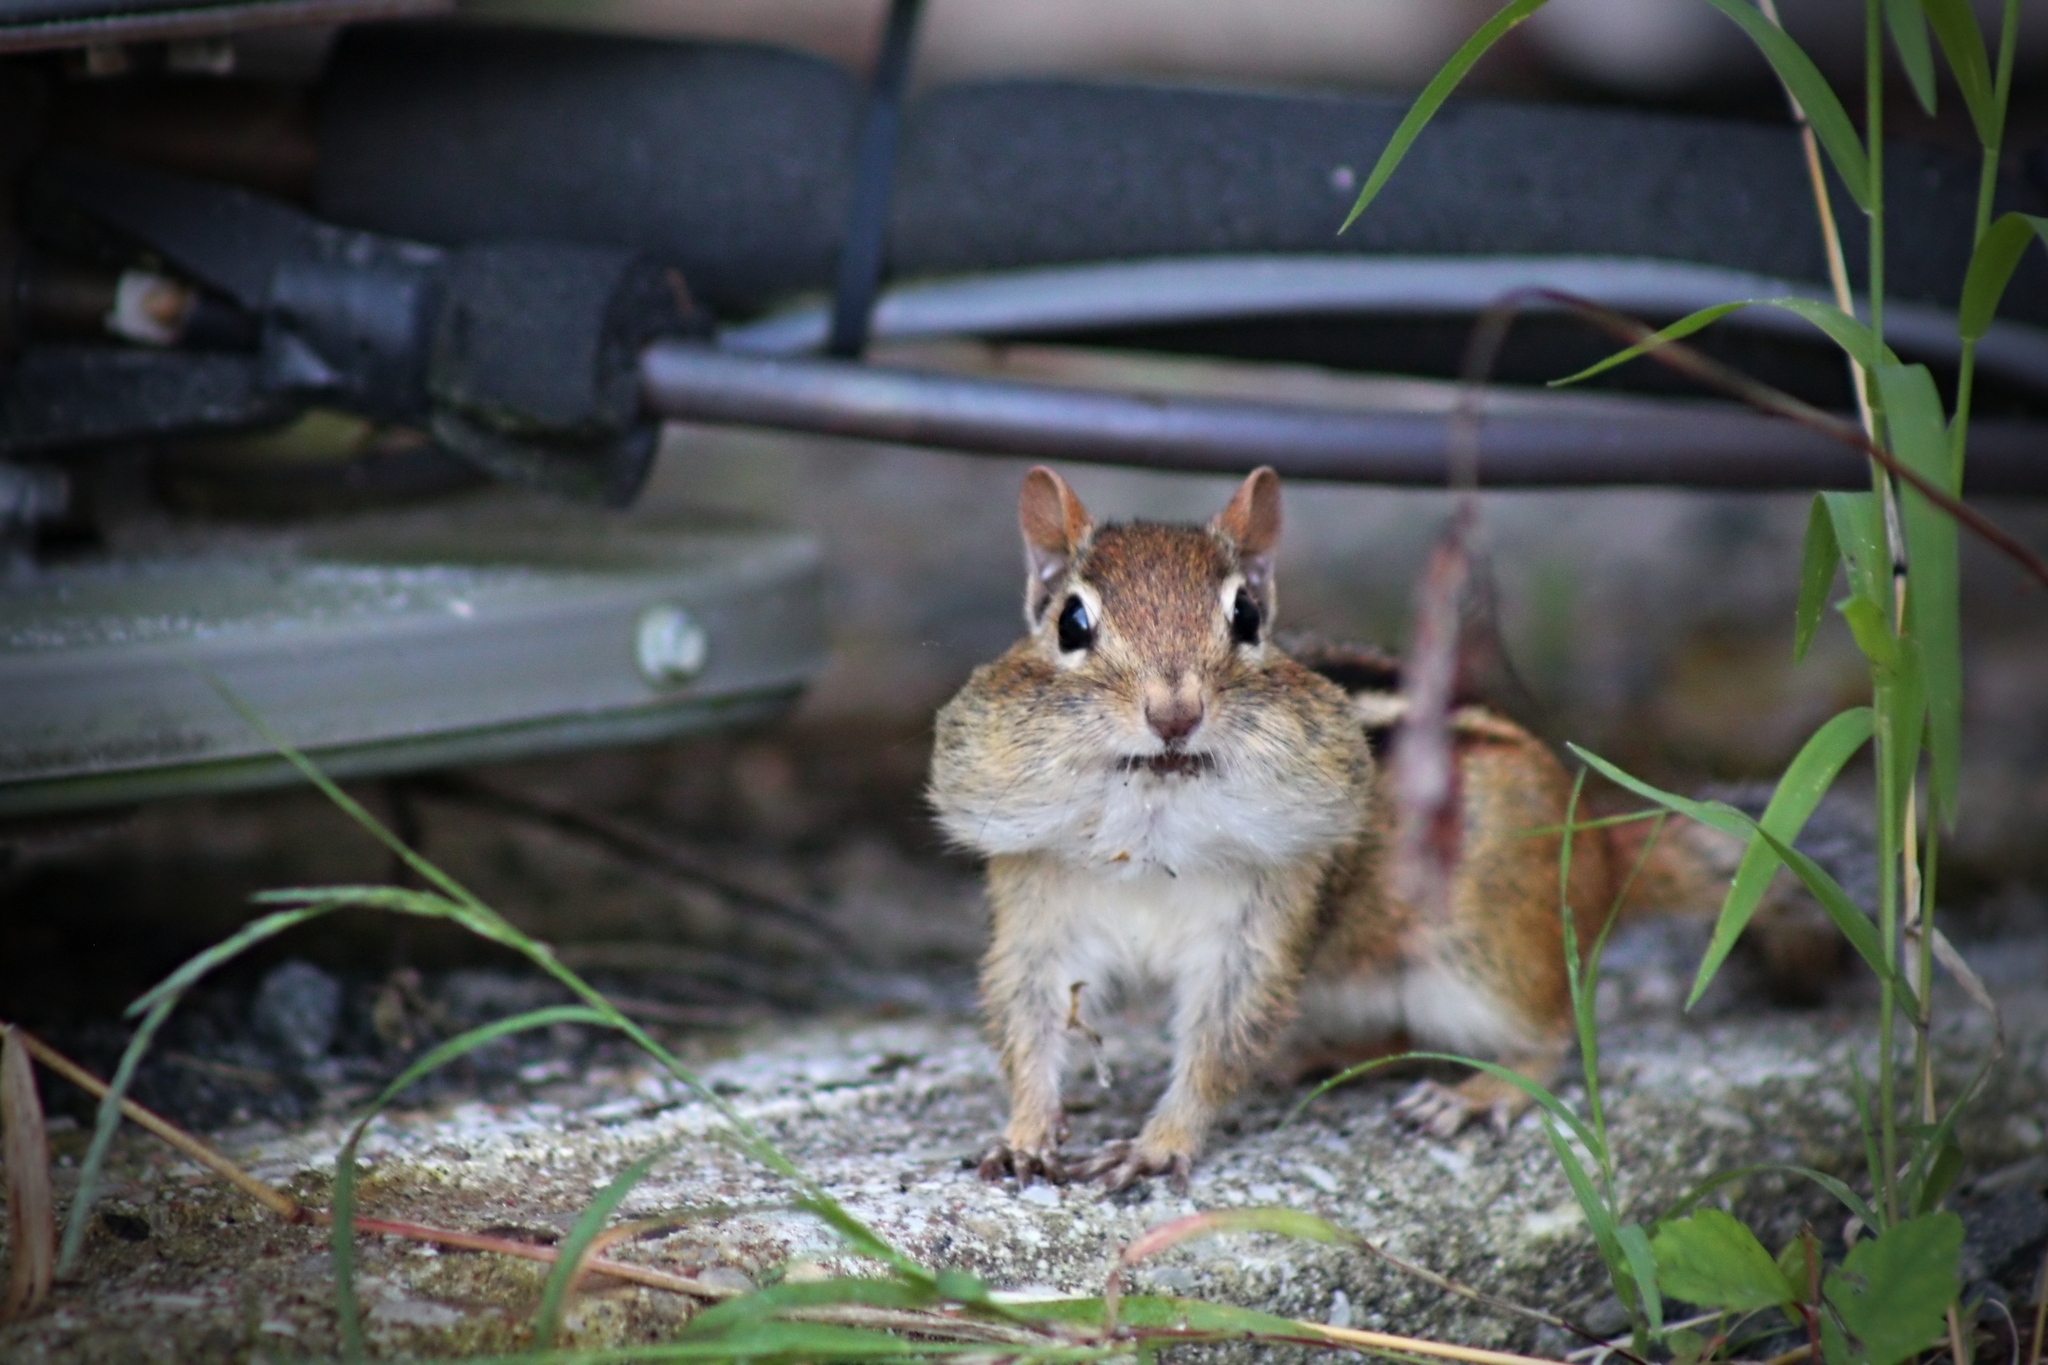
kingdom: Animalia
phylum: Chordata
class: Mammalia
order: Rodentia
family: Sciuridae
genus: Tamias
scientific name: Tamias striatus
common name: Eastern chipmunk
